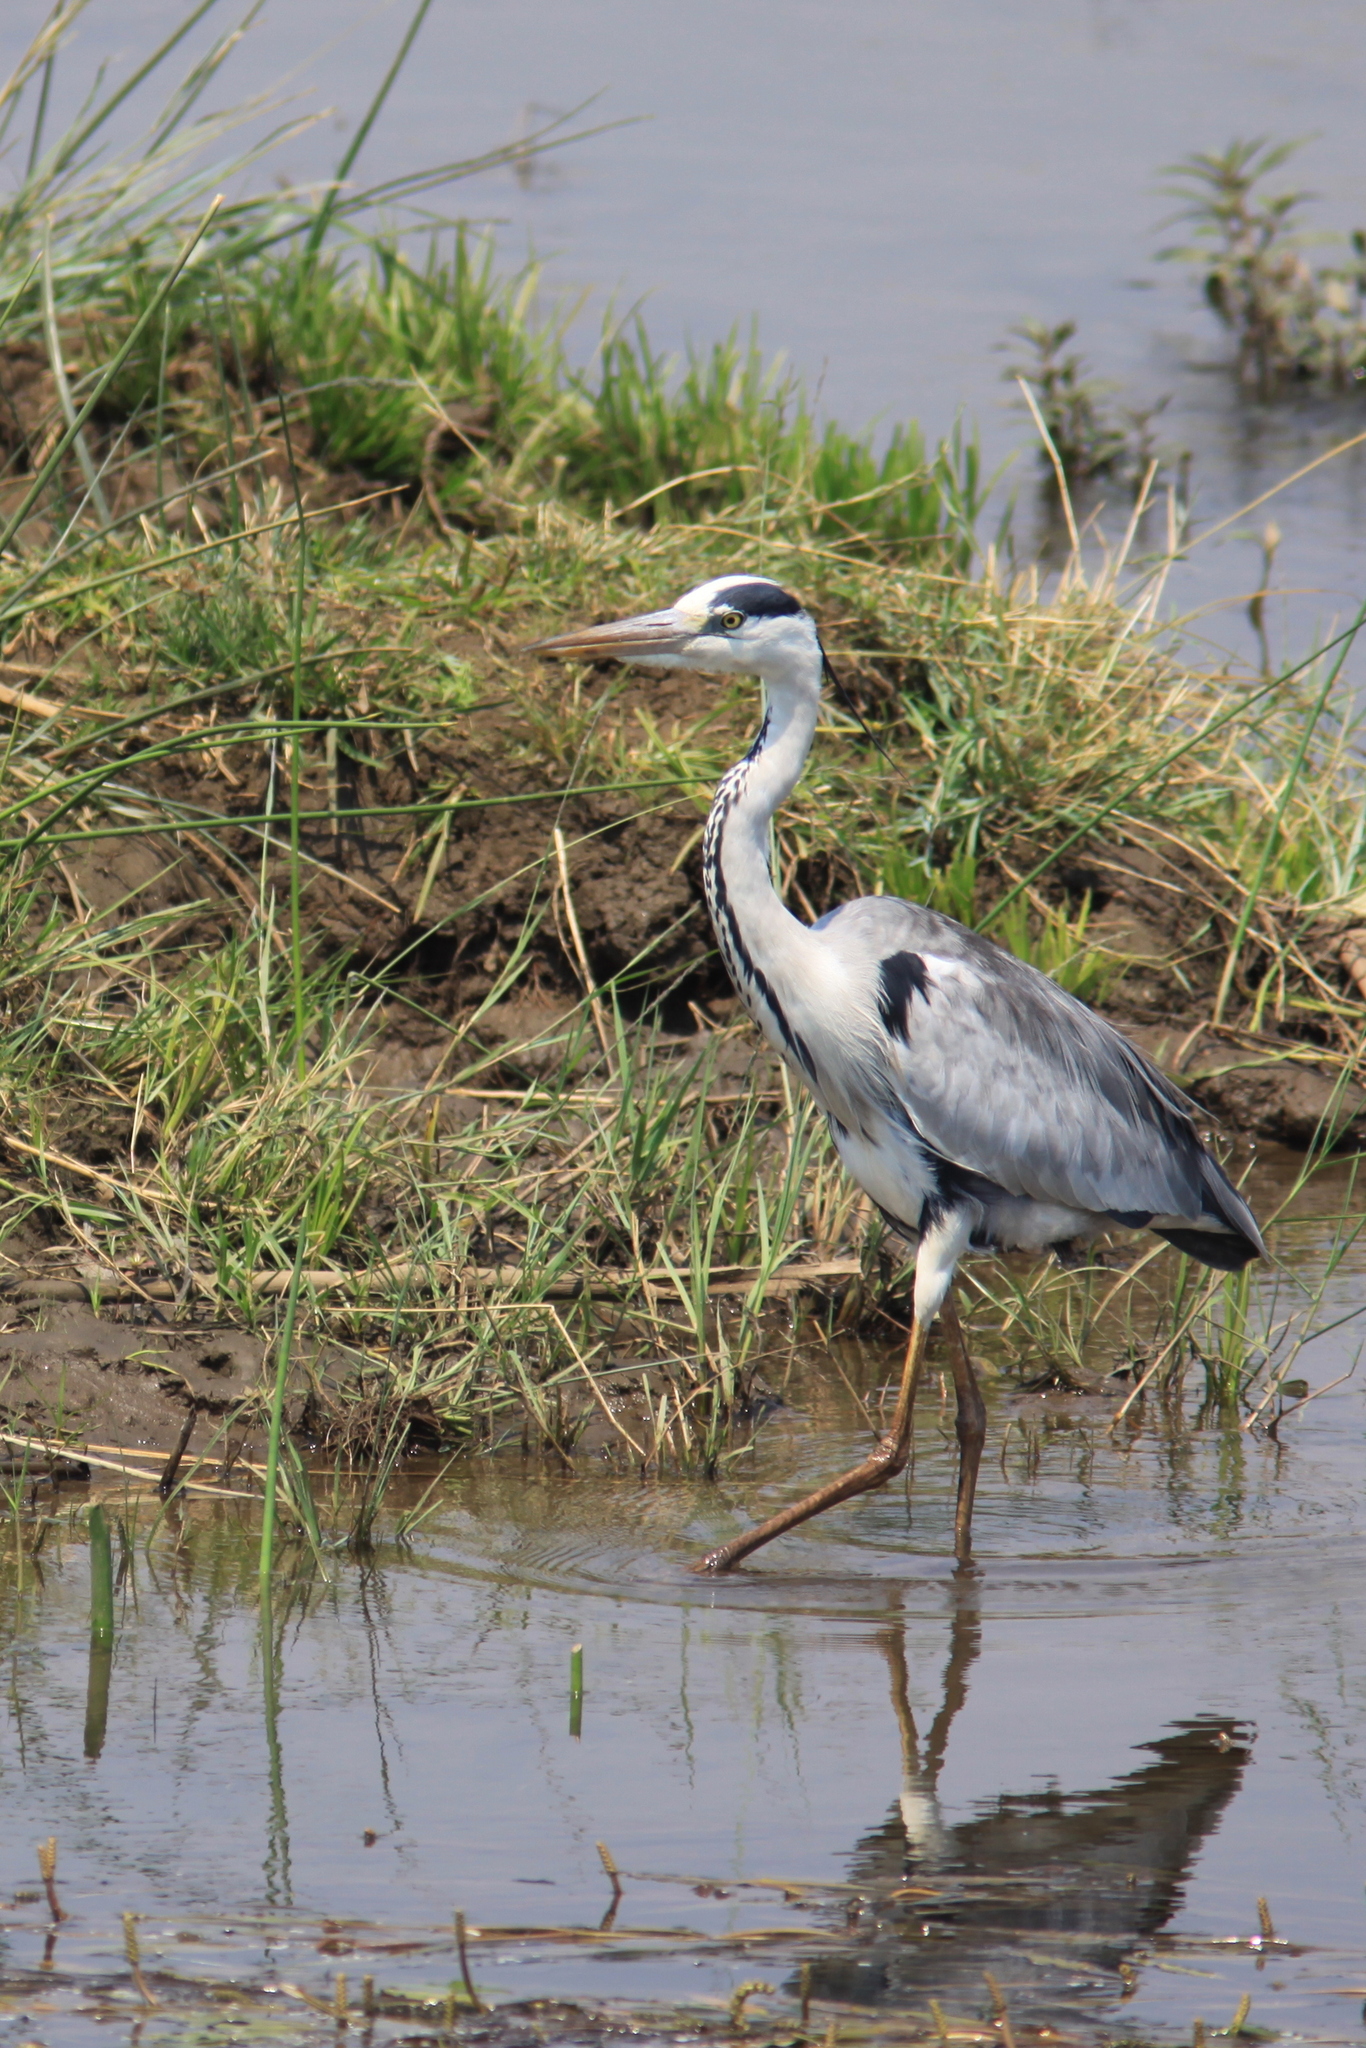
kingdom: Animalia
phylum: Chordata
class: Aves
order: Pelecaniformes
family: Ardeidae
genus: Ardea
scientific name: Ardea cinerea
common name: Grey heron
